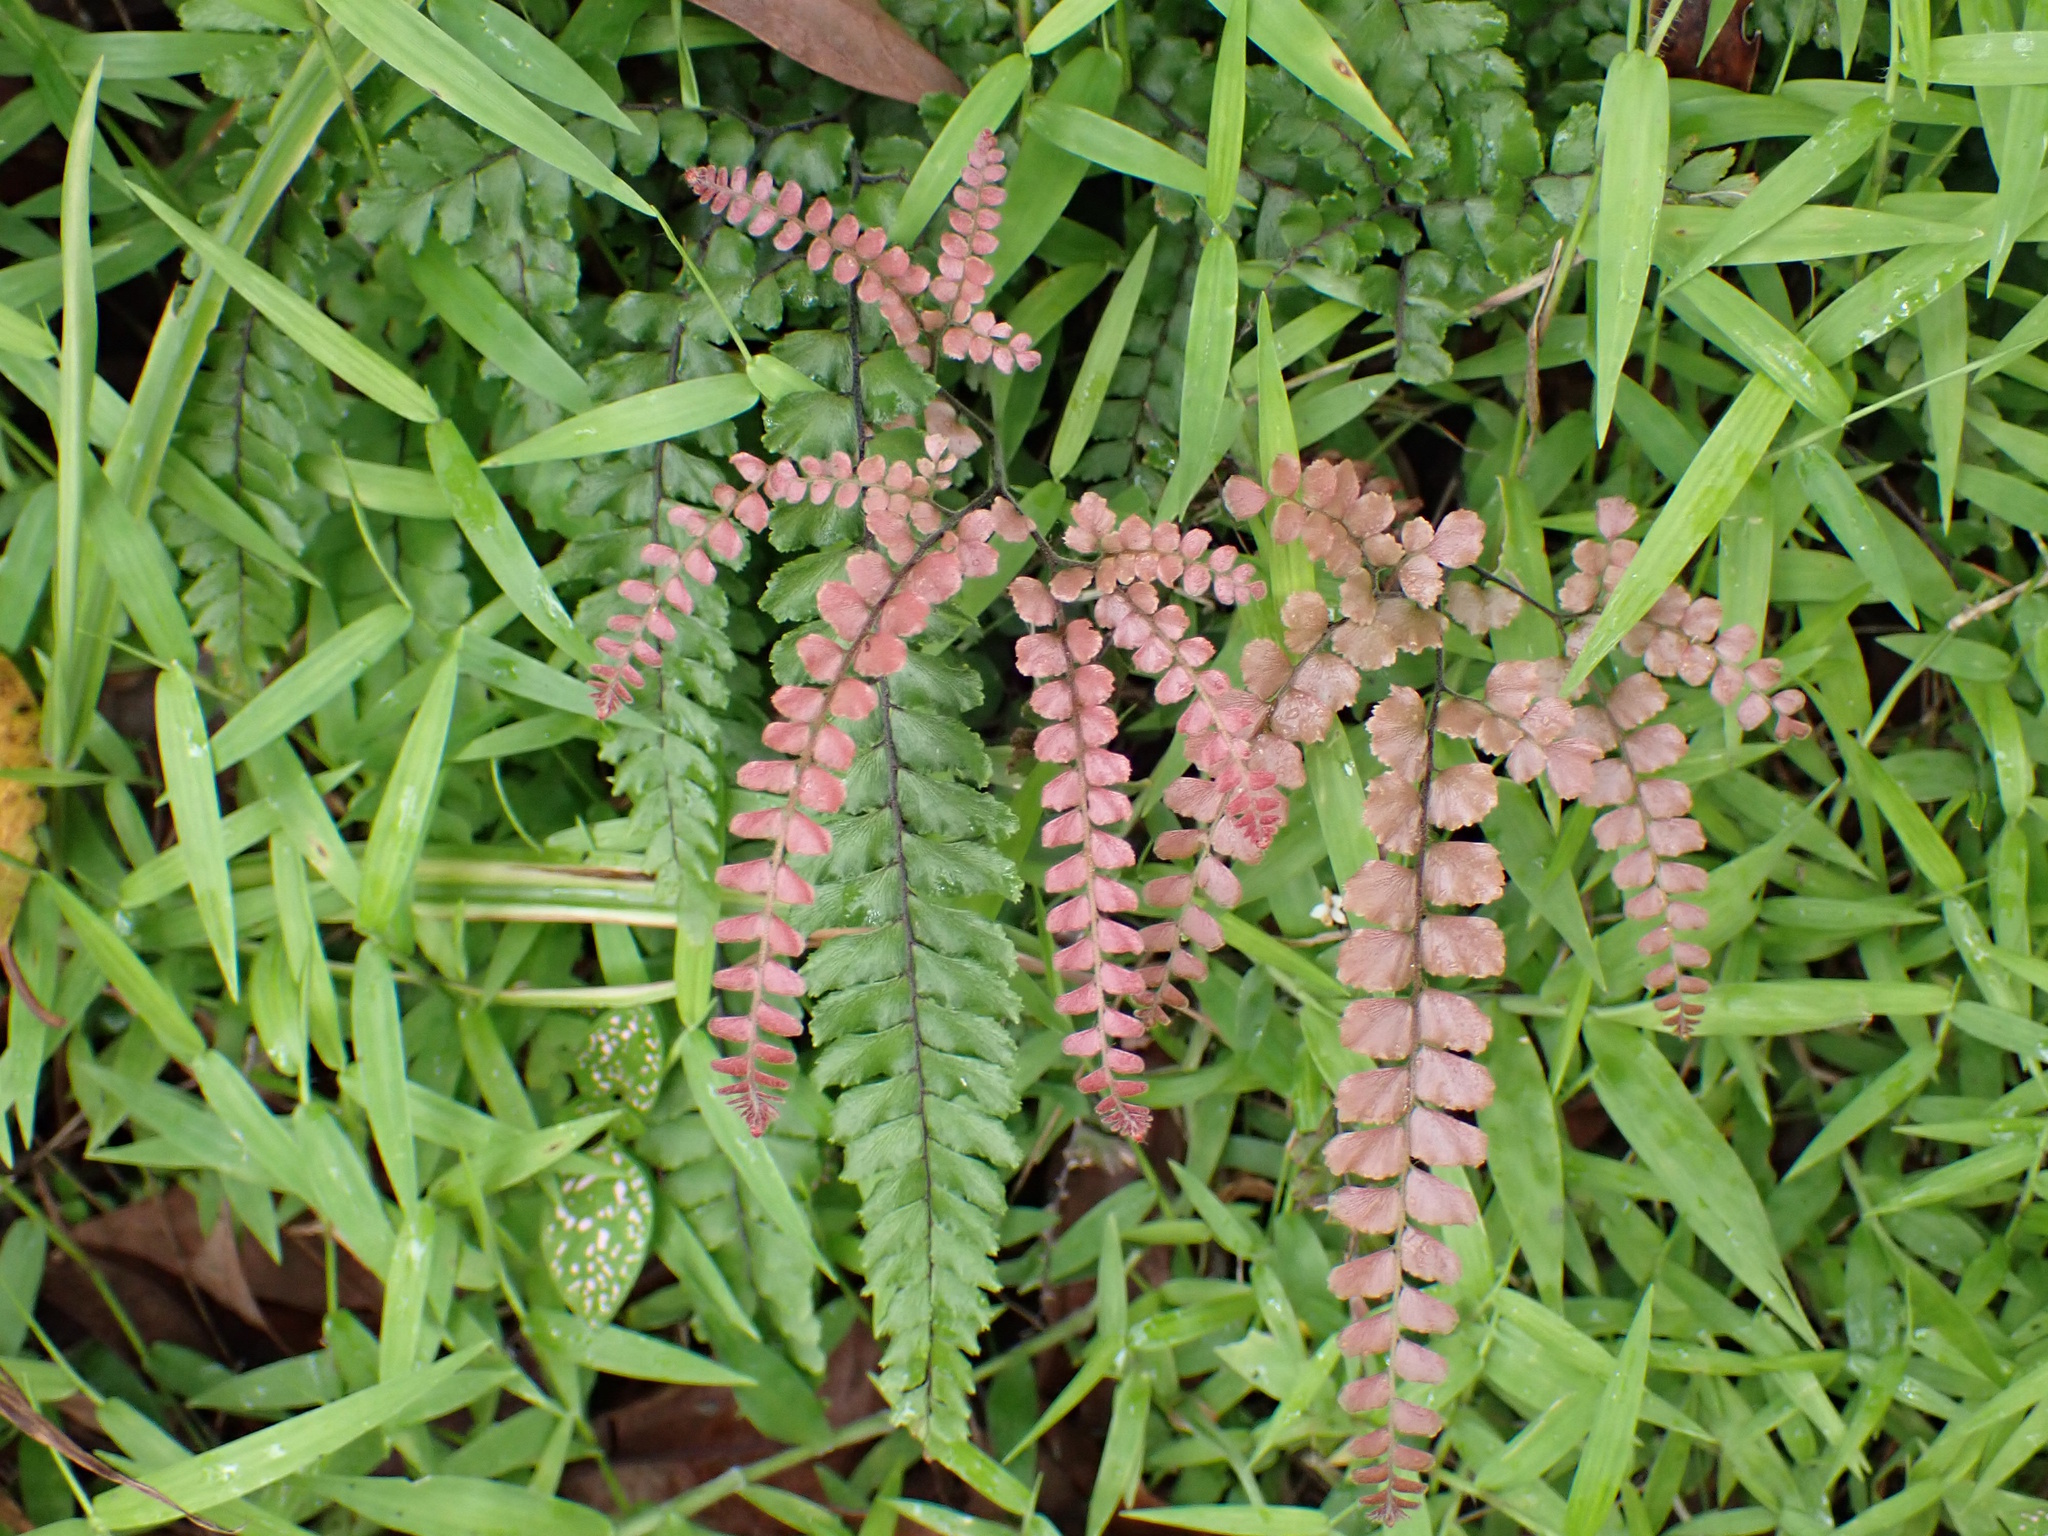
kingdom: Plantae
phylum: Tracheophyta
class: Polypodiopsida
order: Polypodiales
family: Pteridaceae
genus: Adiantum
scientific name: Adiantum hispidulum
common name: Rough maidenhair
